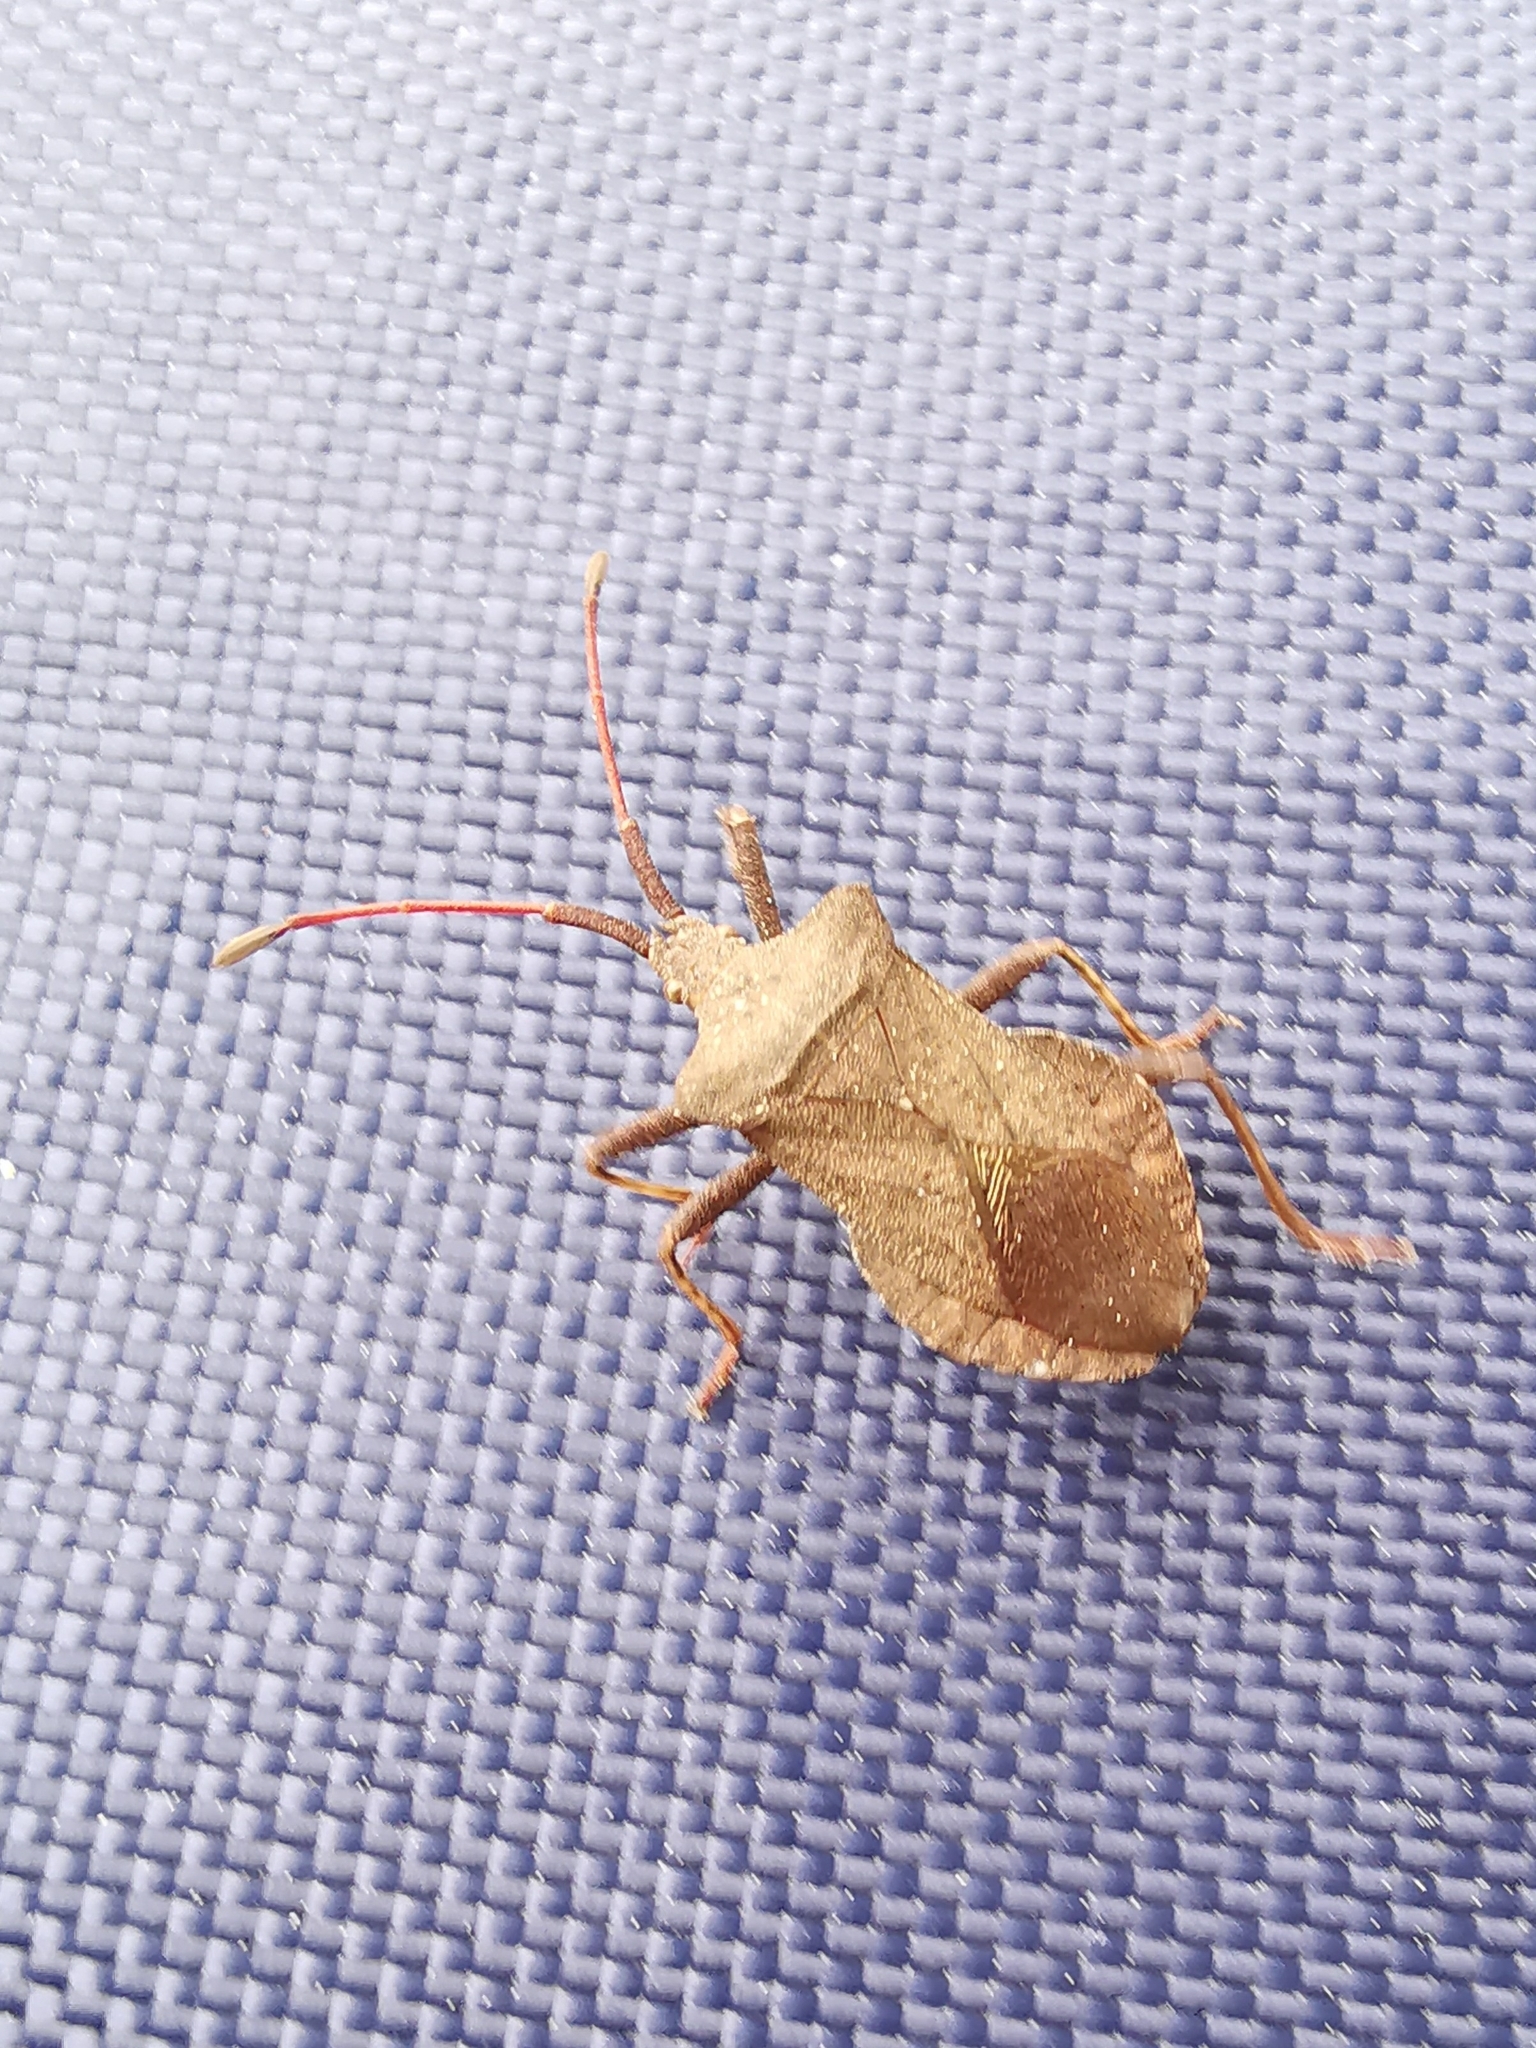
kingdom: Animalia
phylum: Arthropoda
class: Insecta
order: Hemiptera
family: Coreidae
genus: Coreus
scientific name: Coreus marginatus
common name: Dock bug
